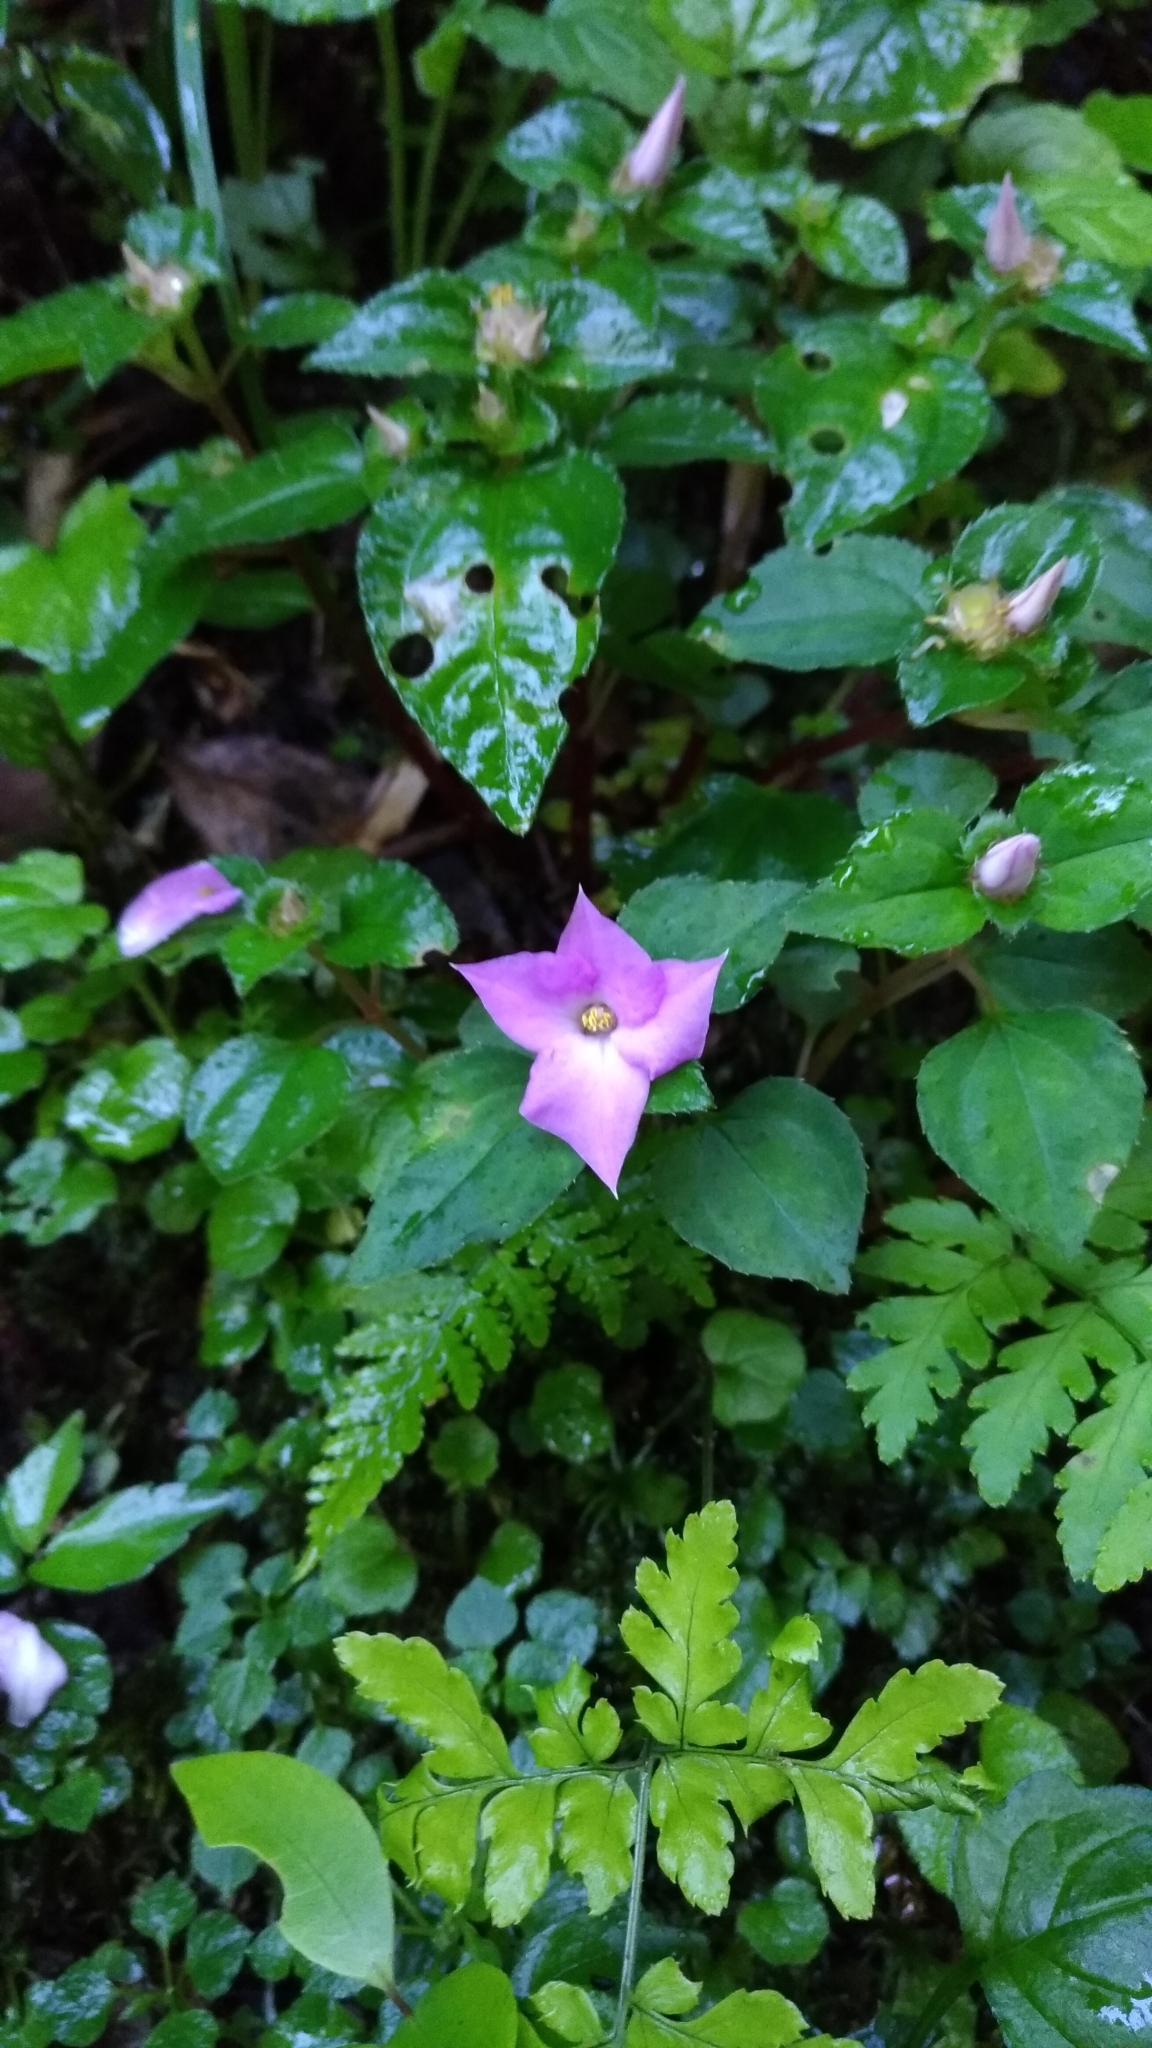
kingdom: Plantae
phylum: Tracheophyta
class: Magnoliopsida
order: Myrtales
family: Melastomataceae
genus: Sarcopyramis
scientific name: Sarcopyramis bodinieri
